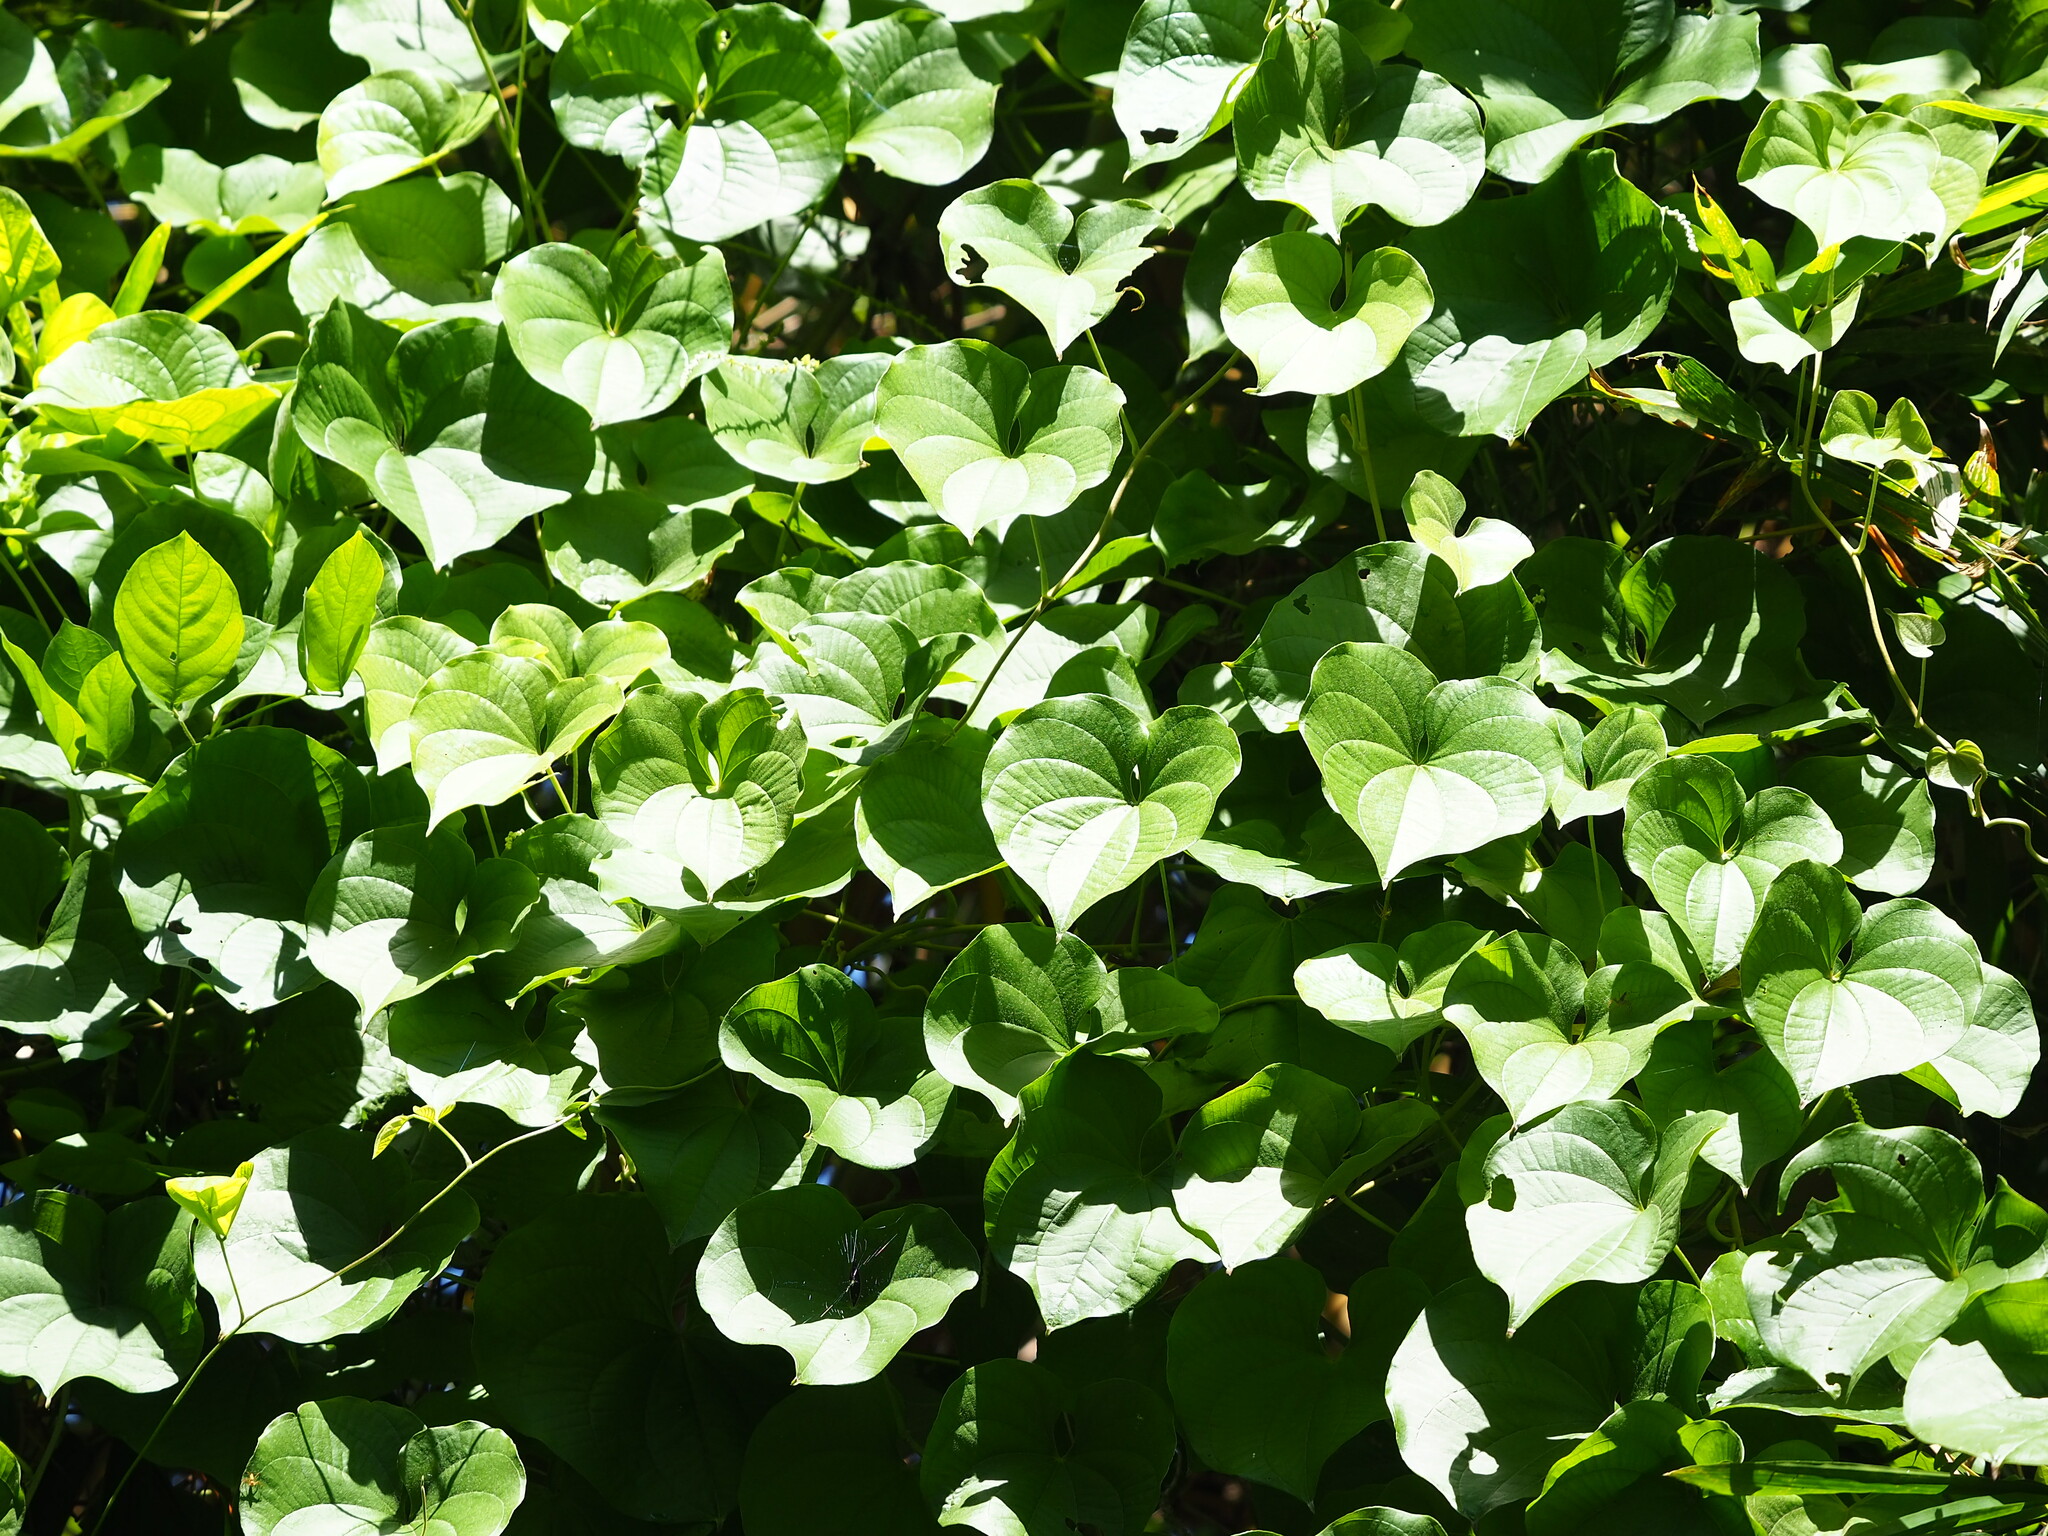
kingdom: Plantae
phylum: Tracheophyta
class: Liliopsida
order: Dioscoreales
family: Dioscoreaceae
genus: Dioscorea
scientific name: Dioscorea bulbifera
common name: Air yam
